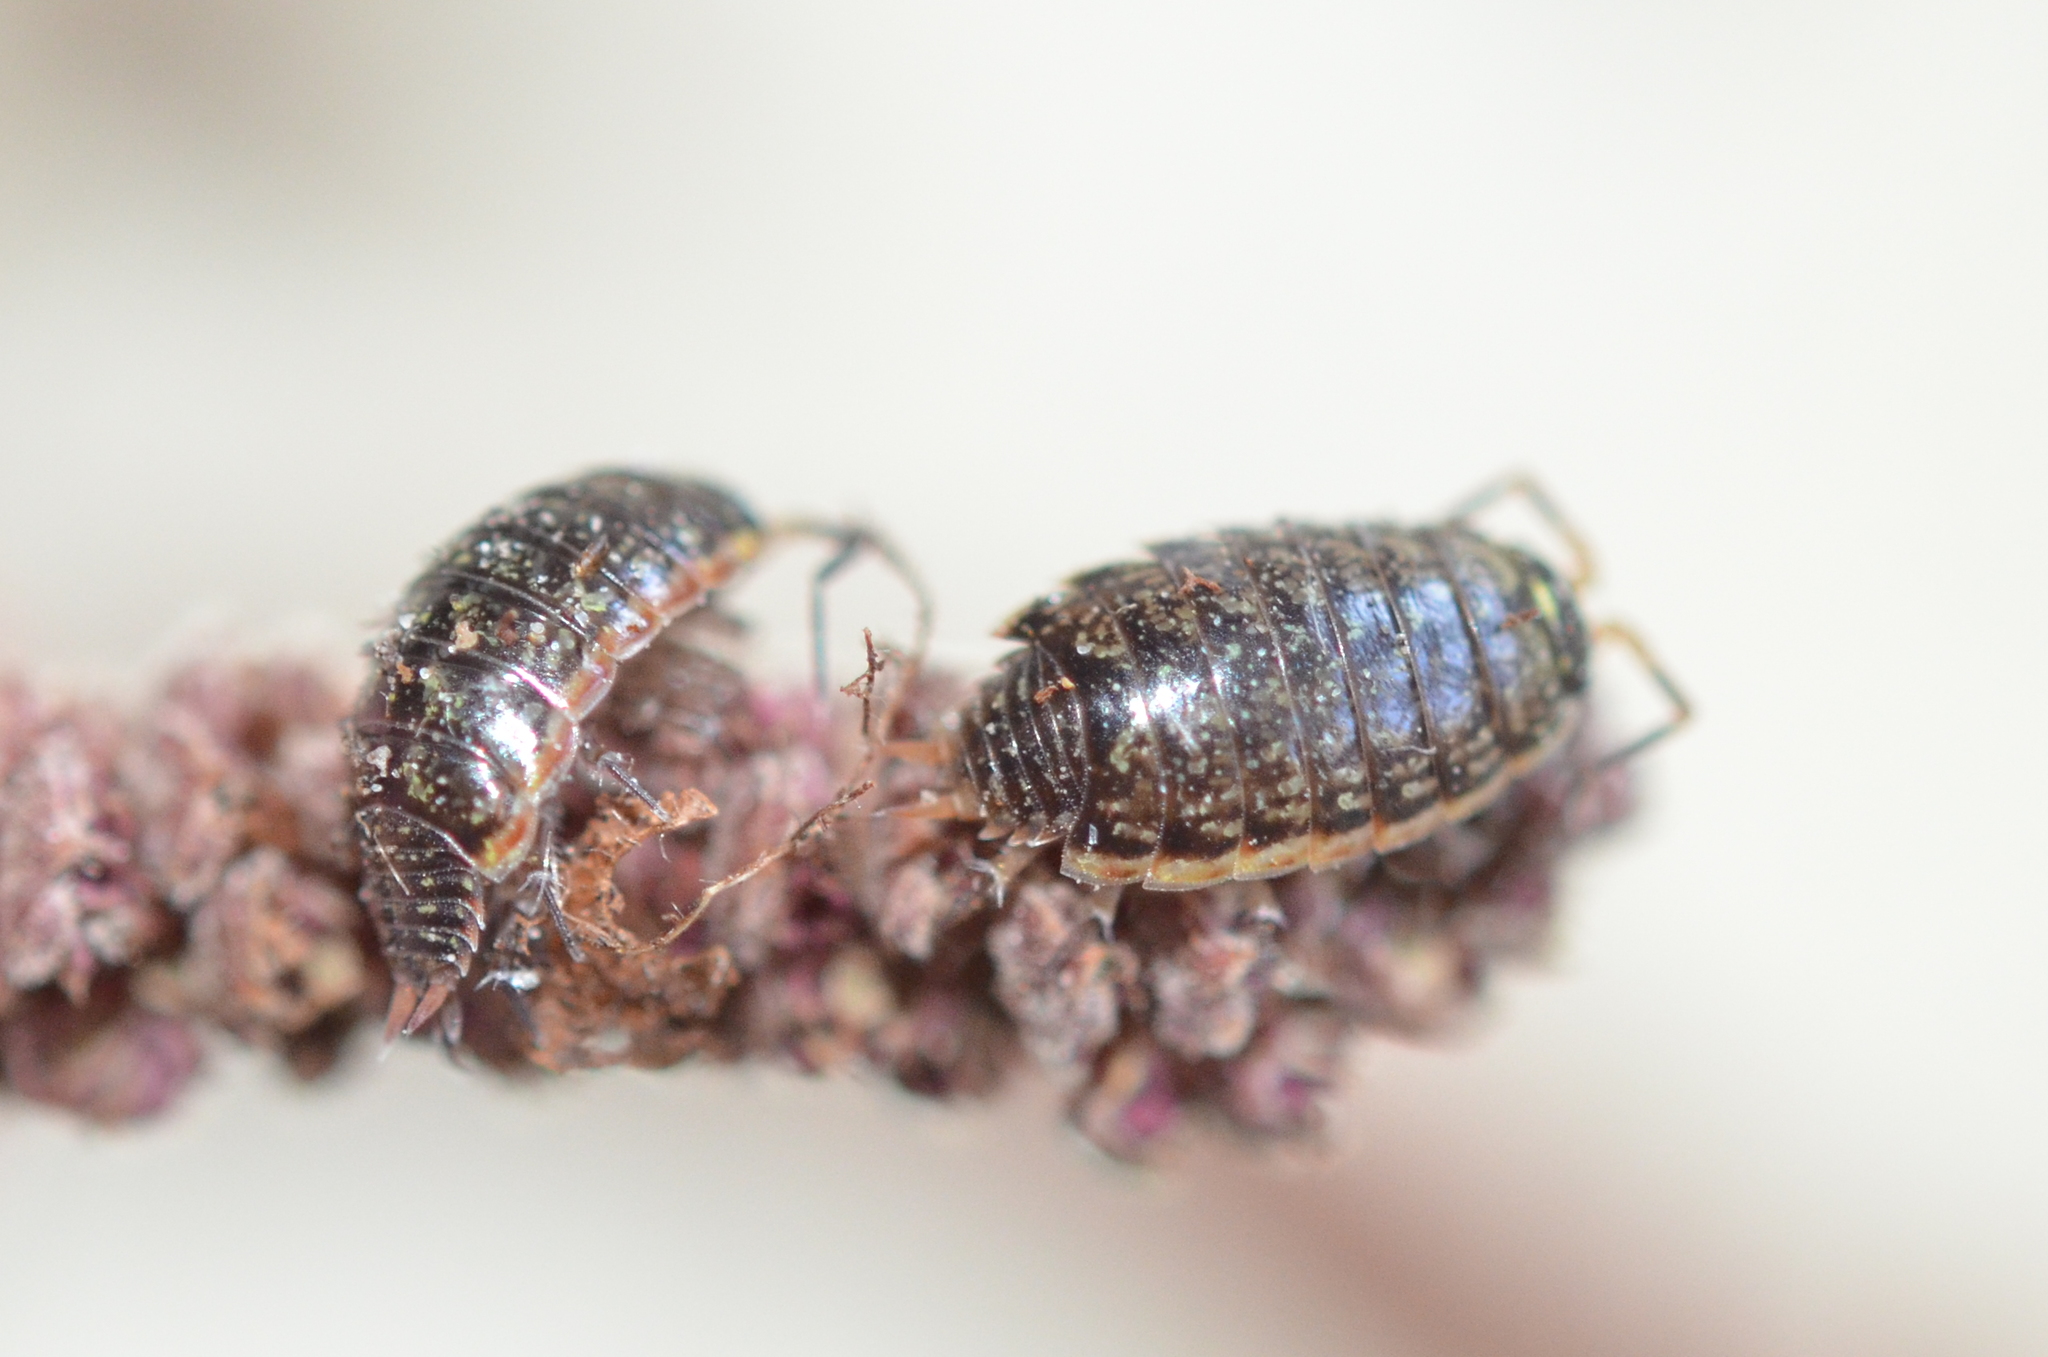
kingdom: Animalia
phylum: Arthropoda
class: Malacostraca
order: Isopoda
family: Philosciidae
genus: Philoscia
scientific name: Philoscia muscorum
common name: Common striped woodlouse
